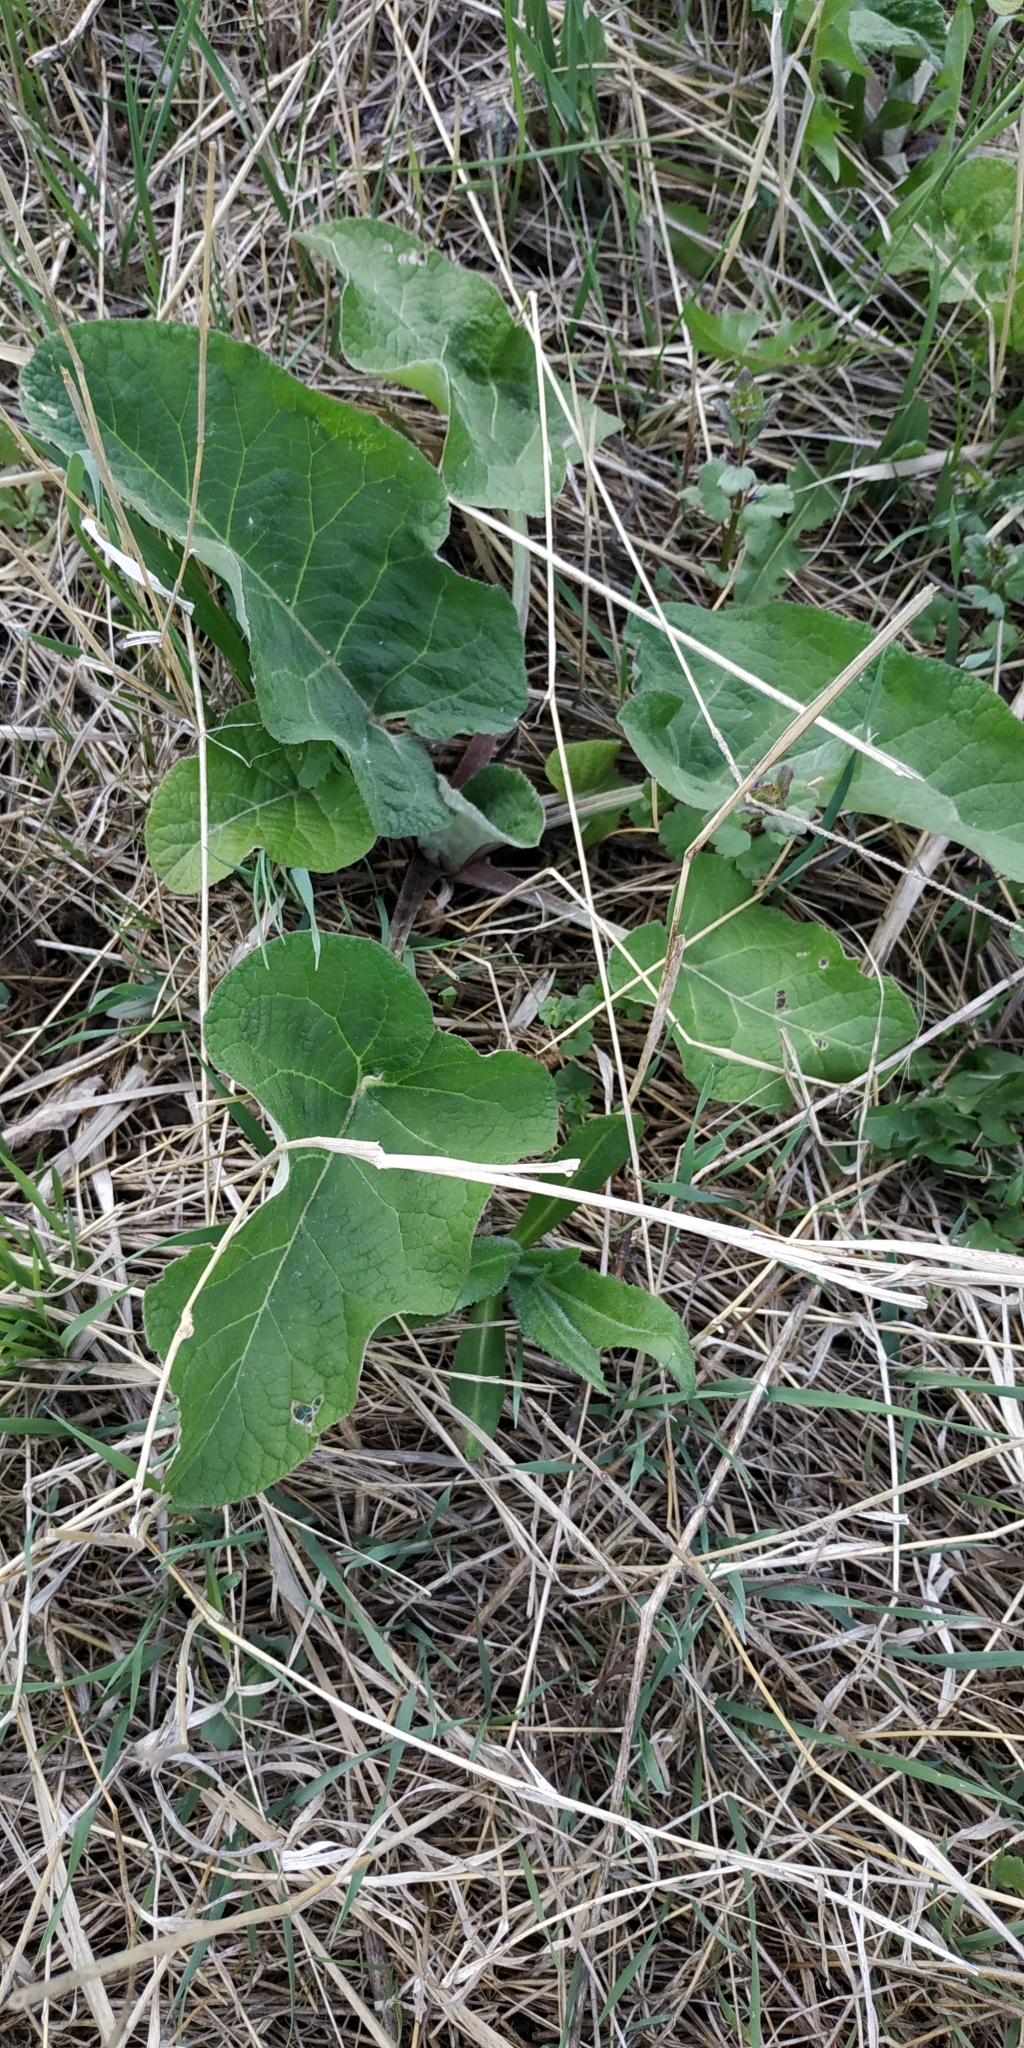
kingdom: Plantae
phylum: Tracheophyta
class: Magnoliopsida
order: Asterales
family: Asteraceae
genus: Arctium
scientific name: Arctium tomentosum
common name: Woolly burdock
